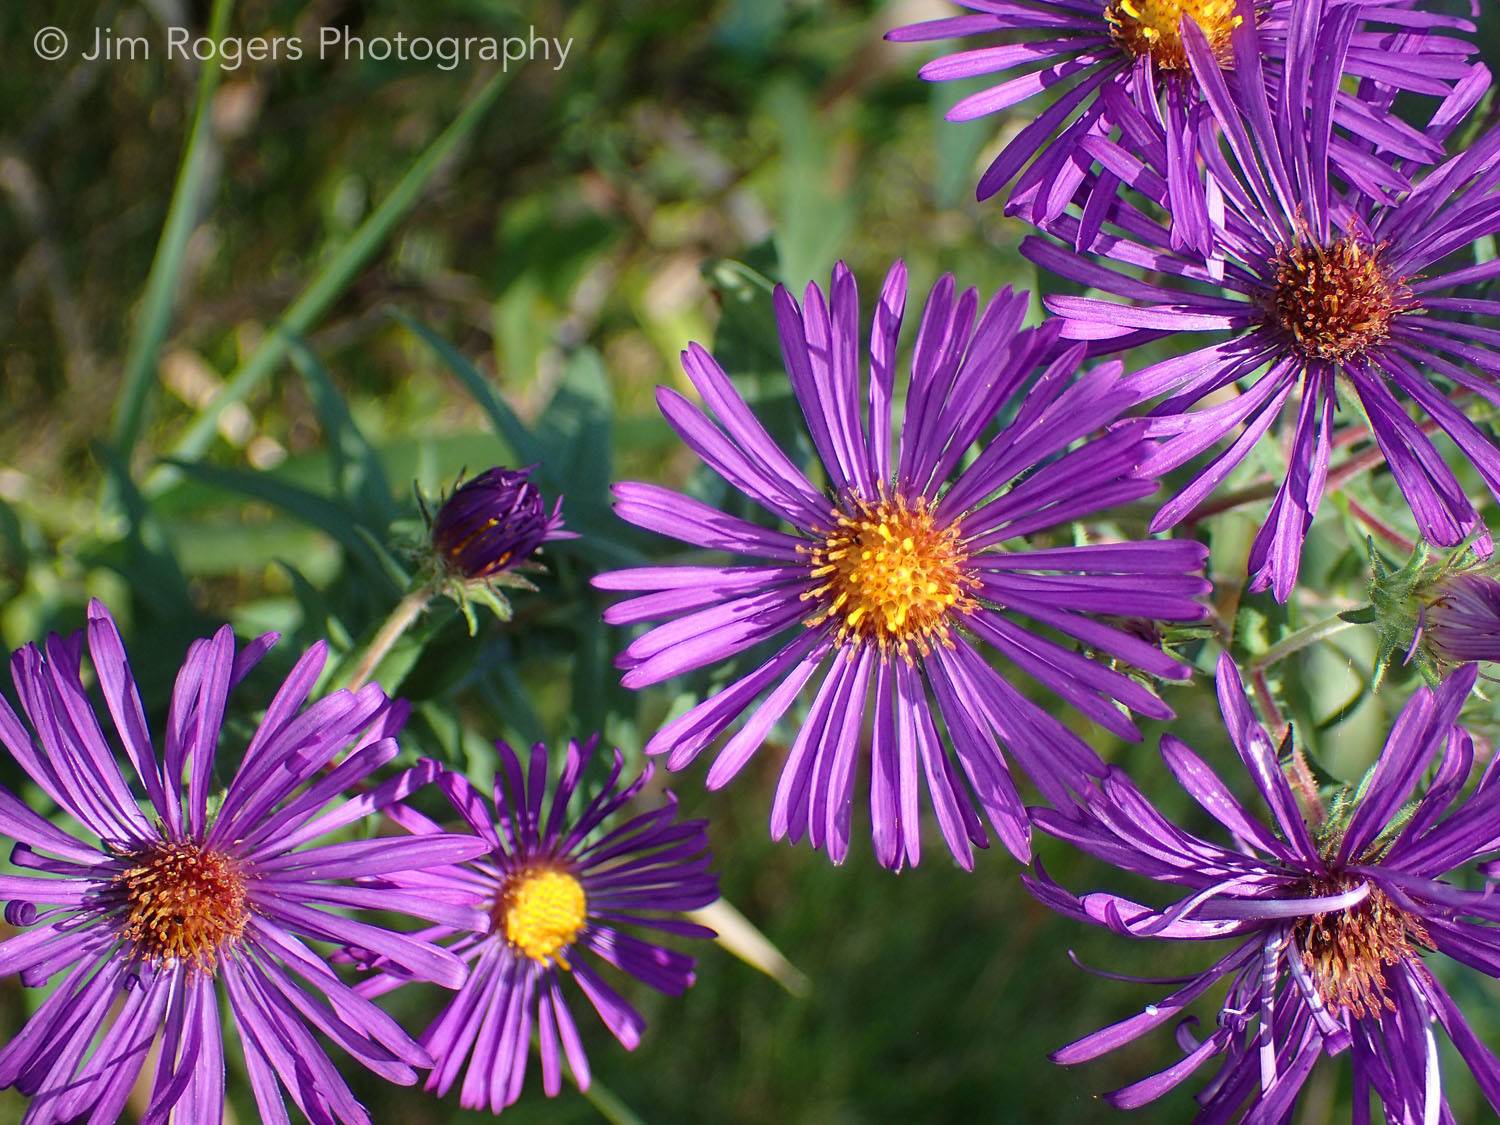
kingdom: Plantae
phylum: Tracheophyta
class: Magnoliopsida
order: Asterales
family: Asteraceae
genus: Symphyotrichum
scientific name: Symphyotrichum novae-angliae
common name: Michaelmas daisy
